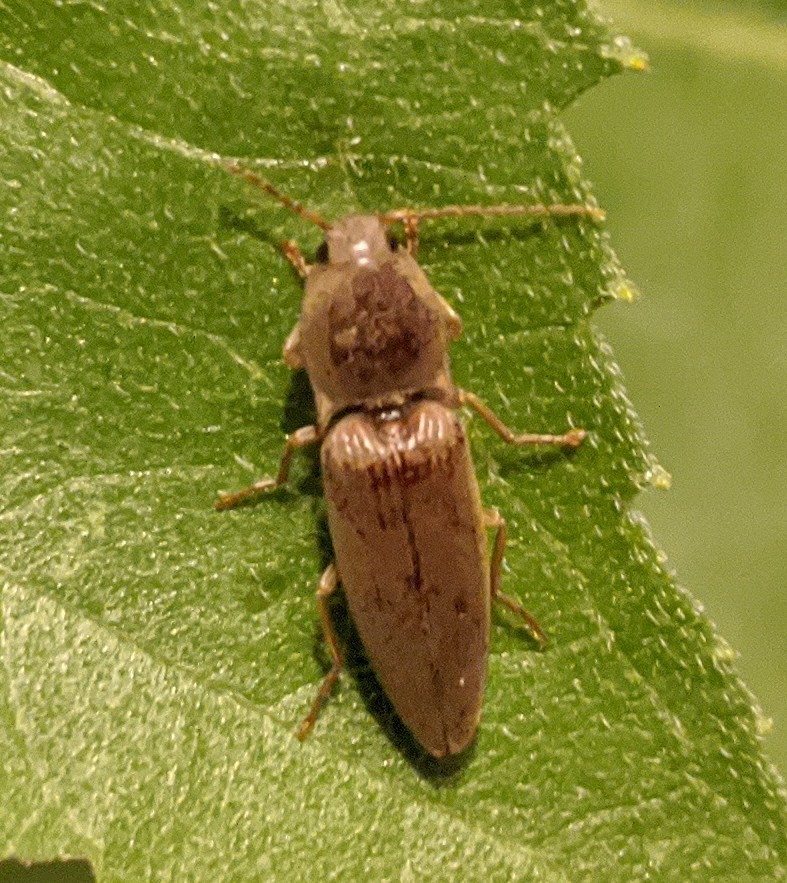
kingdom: Animalia
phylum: Arthropoda
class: Insecta
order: Coleoptera
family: Elateridae
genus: Monocrepidius
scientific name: Monocrepidius lividus
